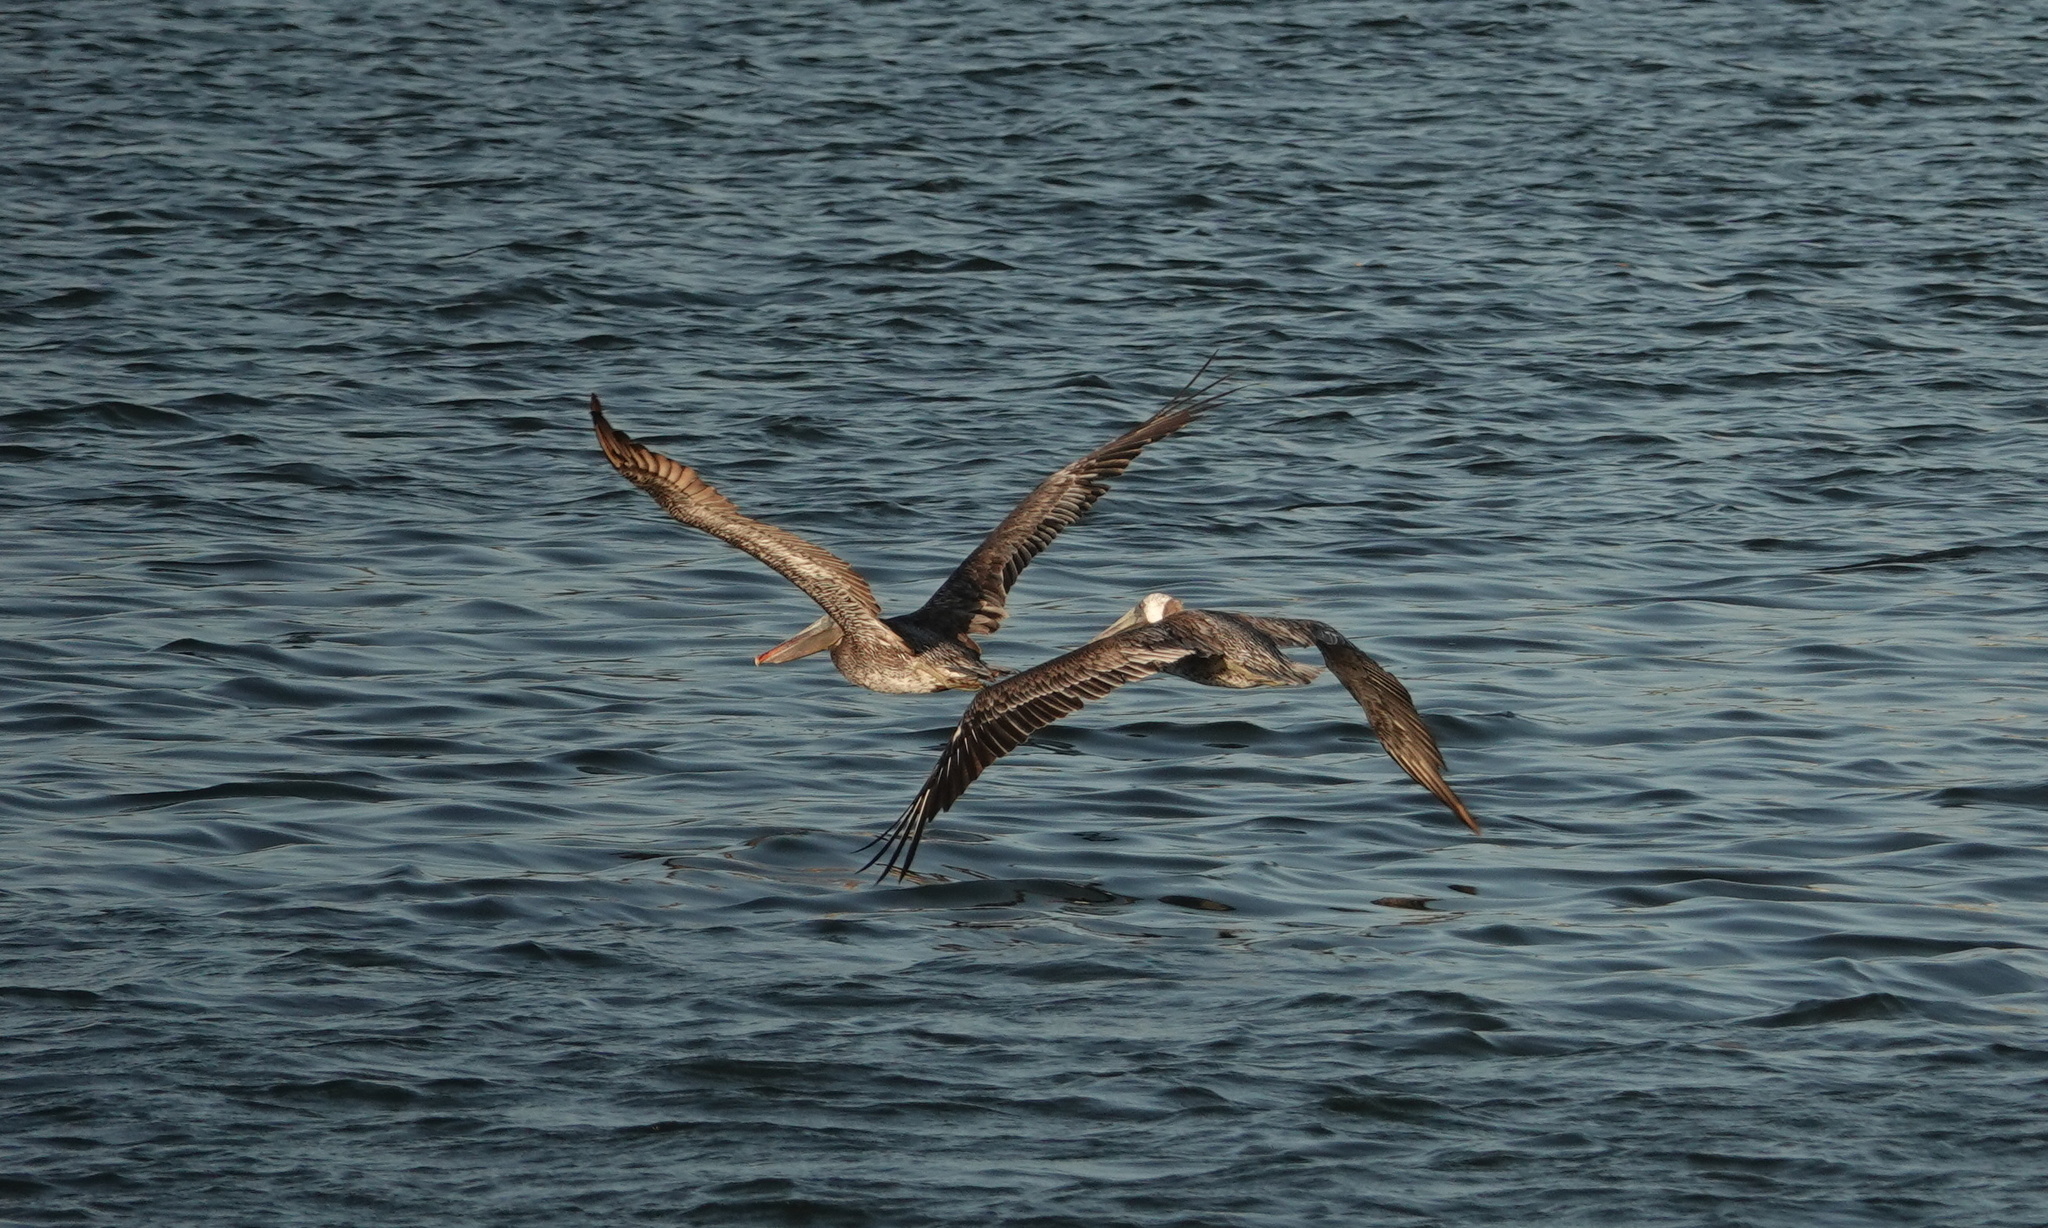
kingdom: Animalia
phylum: Chordata
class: Aves
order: Pelecaniformes
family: Pelecanidae
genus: Pelecanus
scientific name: Pelecanus occidentalis
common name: Brown pelican
